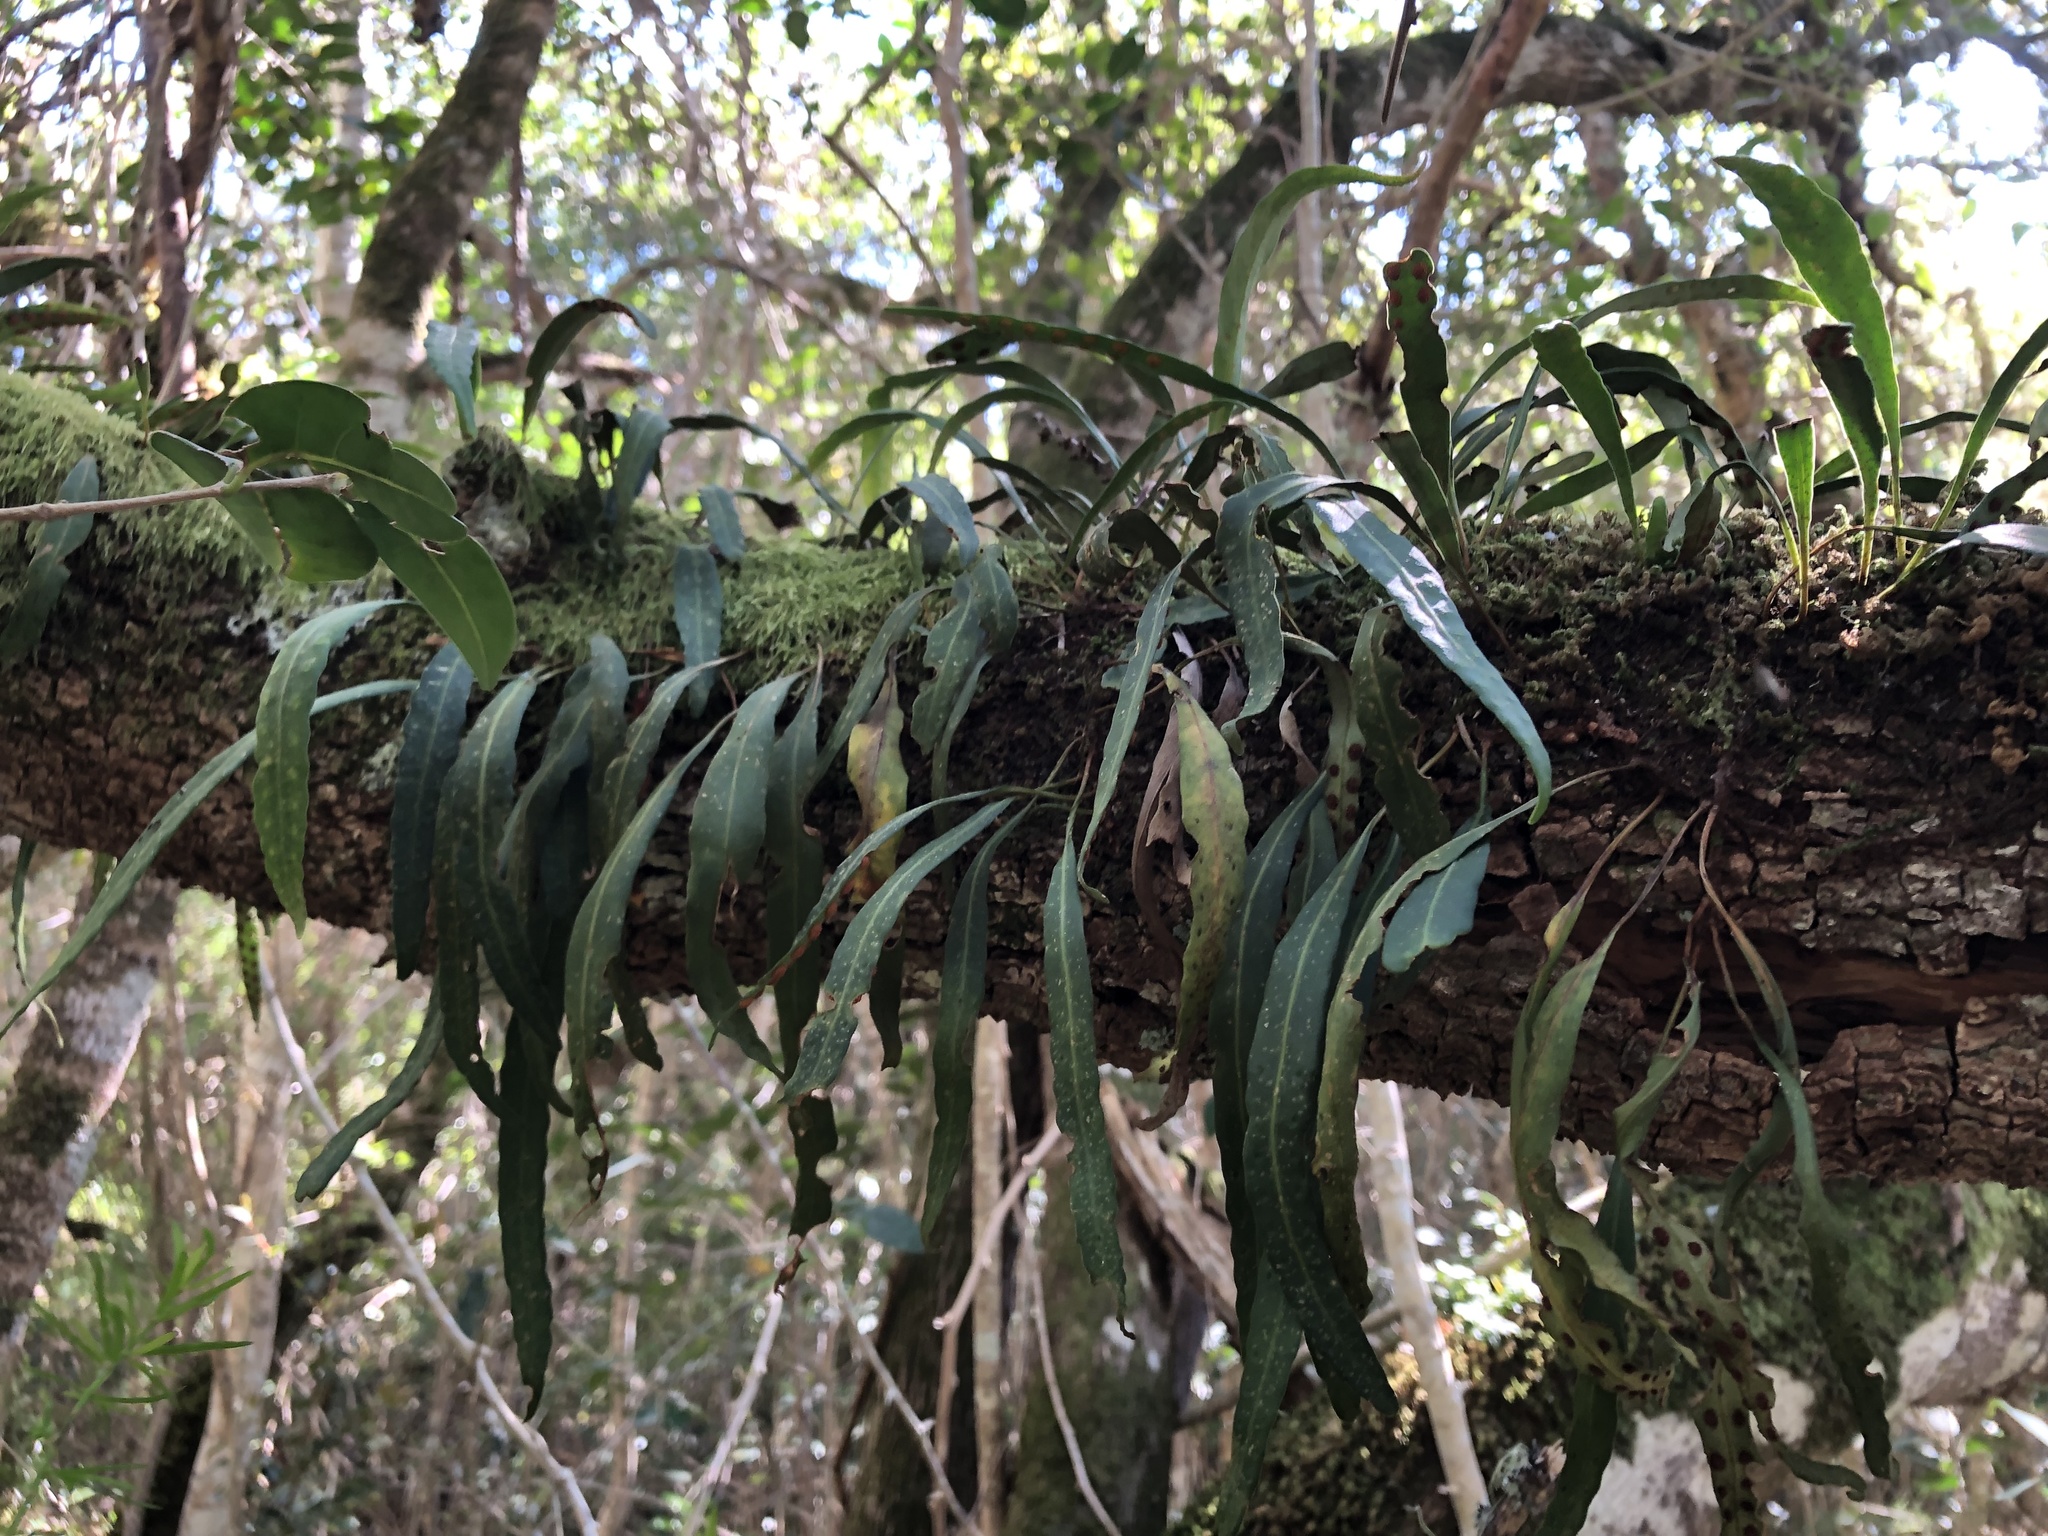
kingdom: Plantae
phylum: Tracheophyta
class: Polypodiopsida
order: Polypodiales
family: Polypodiaceae
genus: Pleopeltis
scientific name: Pleopeltis macrocarpa
